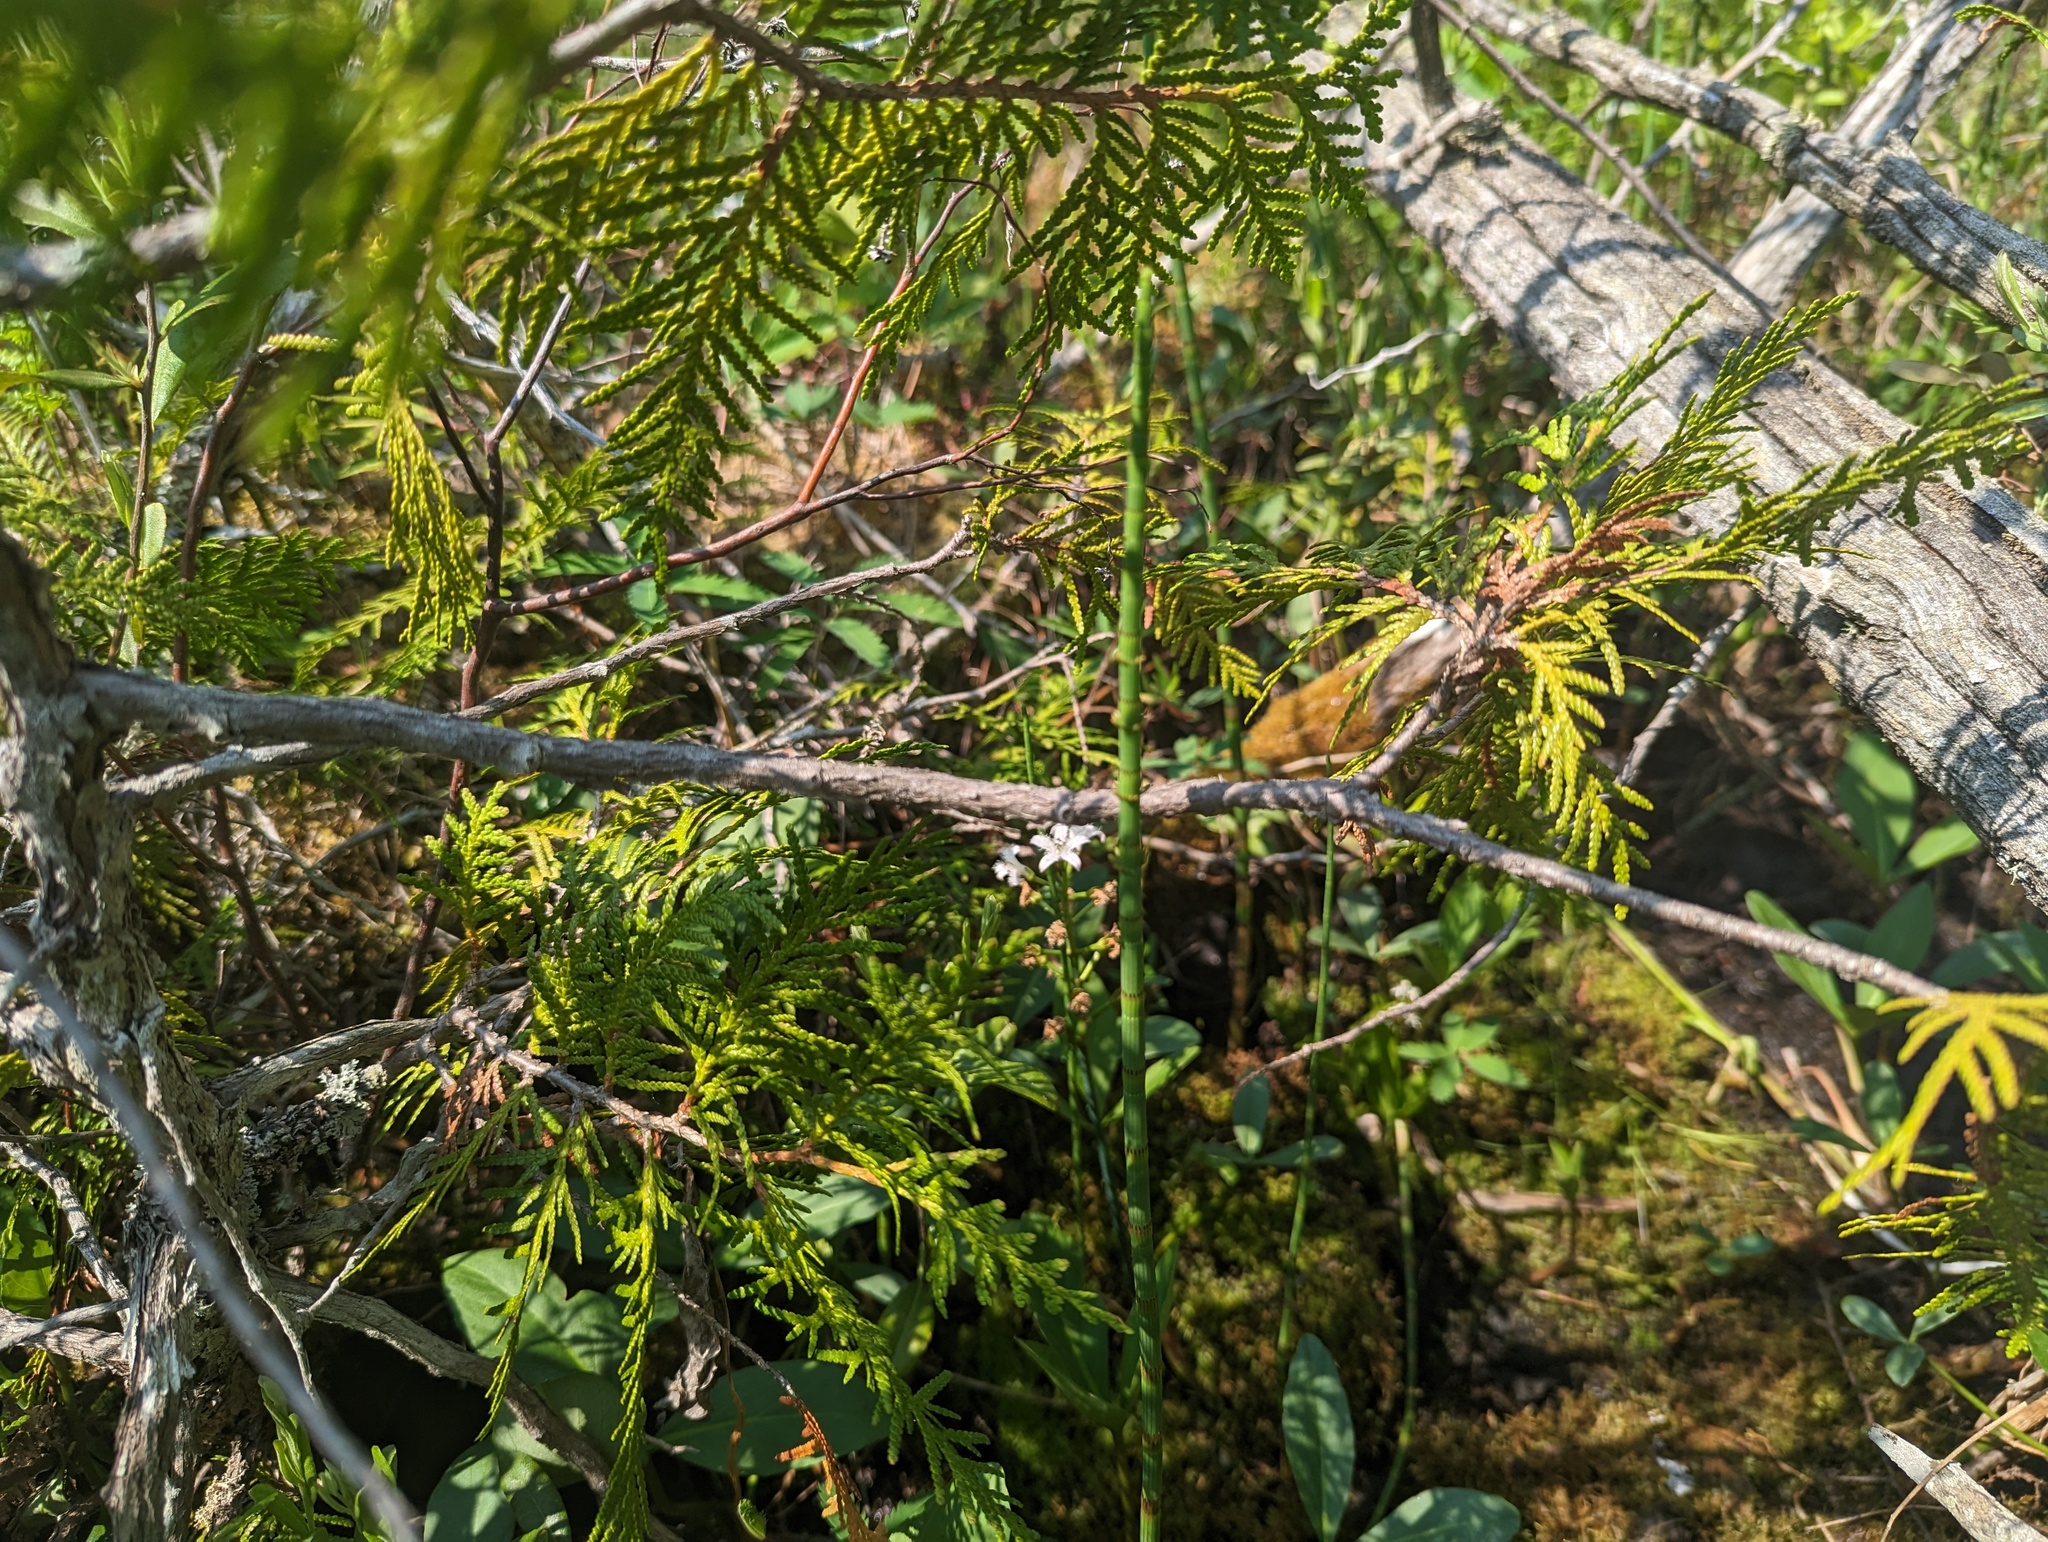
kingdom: Plantae
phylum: Tracheophyta
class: Polypodiopsida
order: Equisetales
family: Equisetaceae
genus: Equisetum
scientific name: Equisetum fluviatile
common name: Water horsetail
